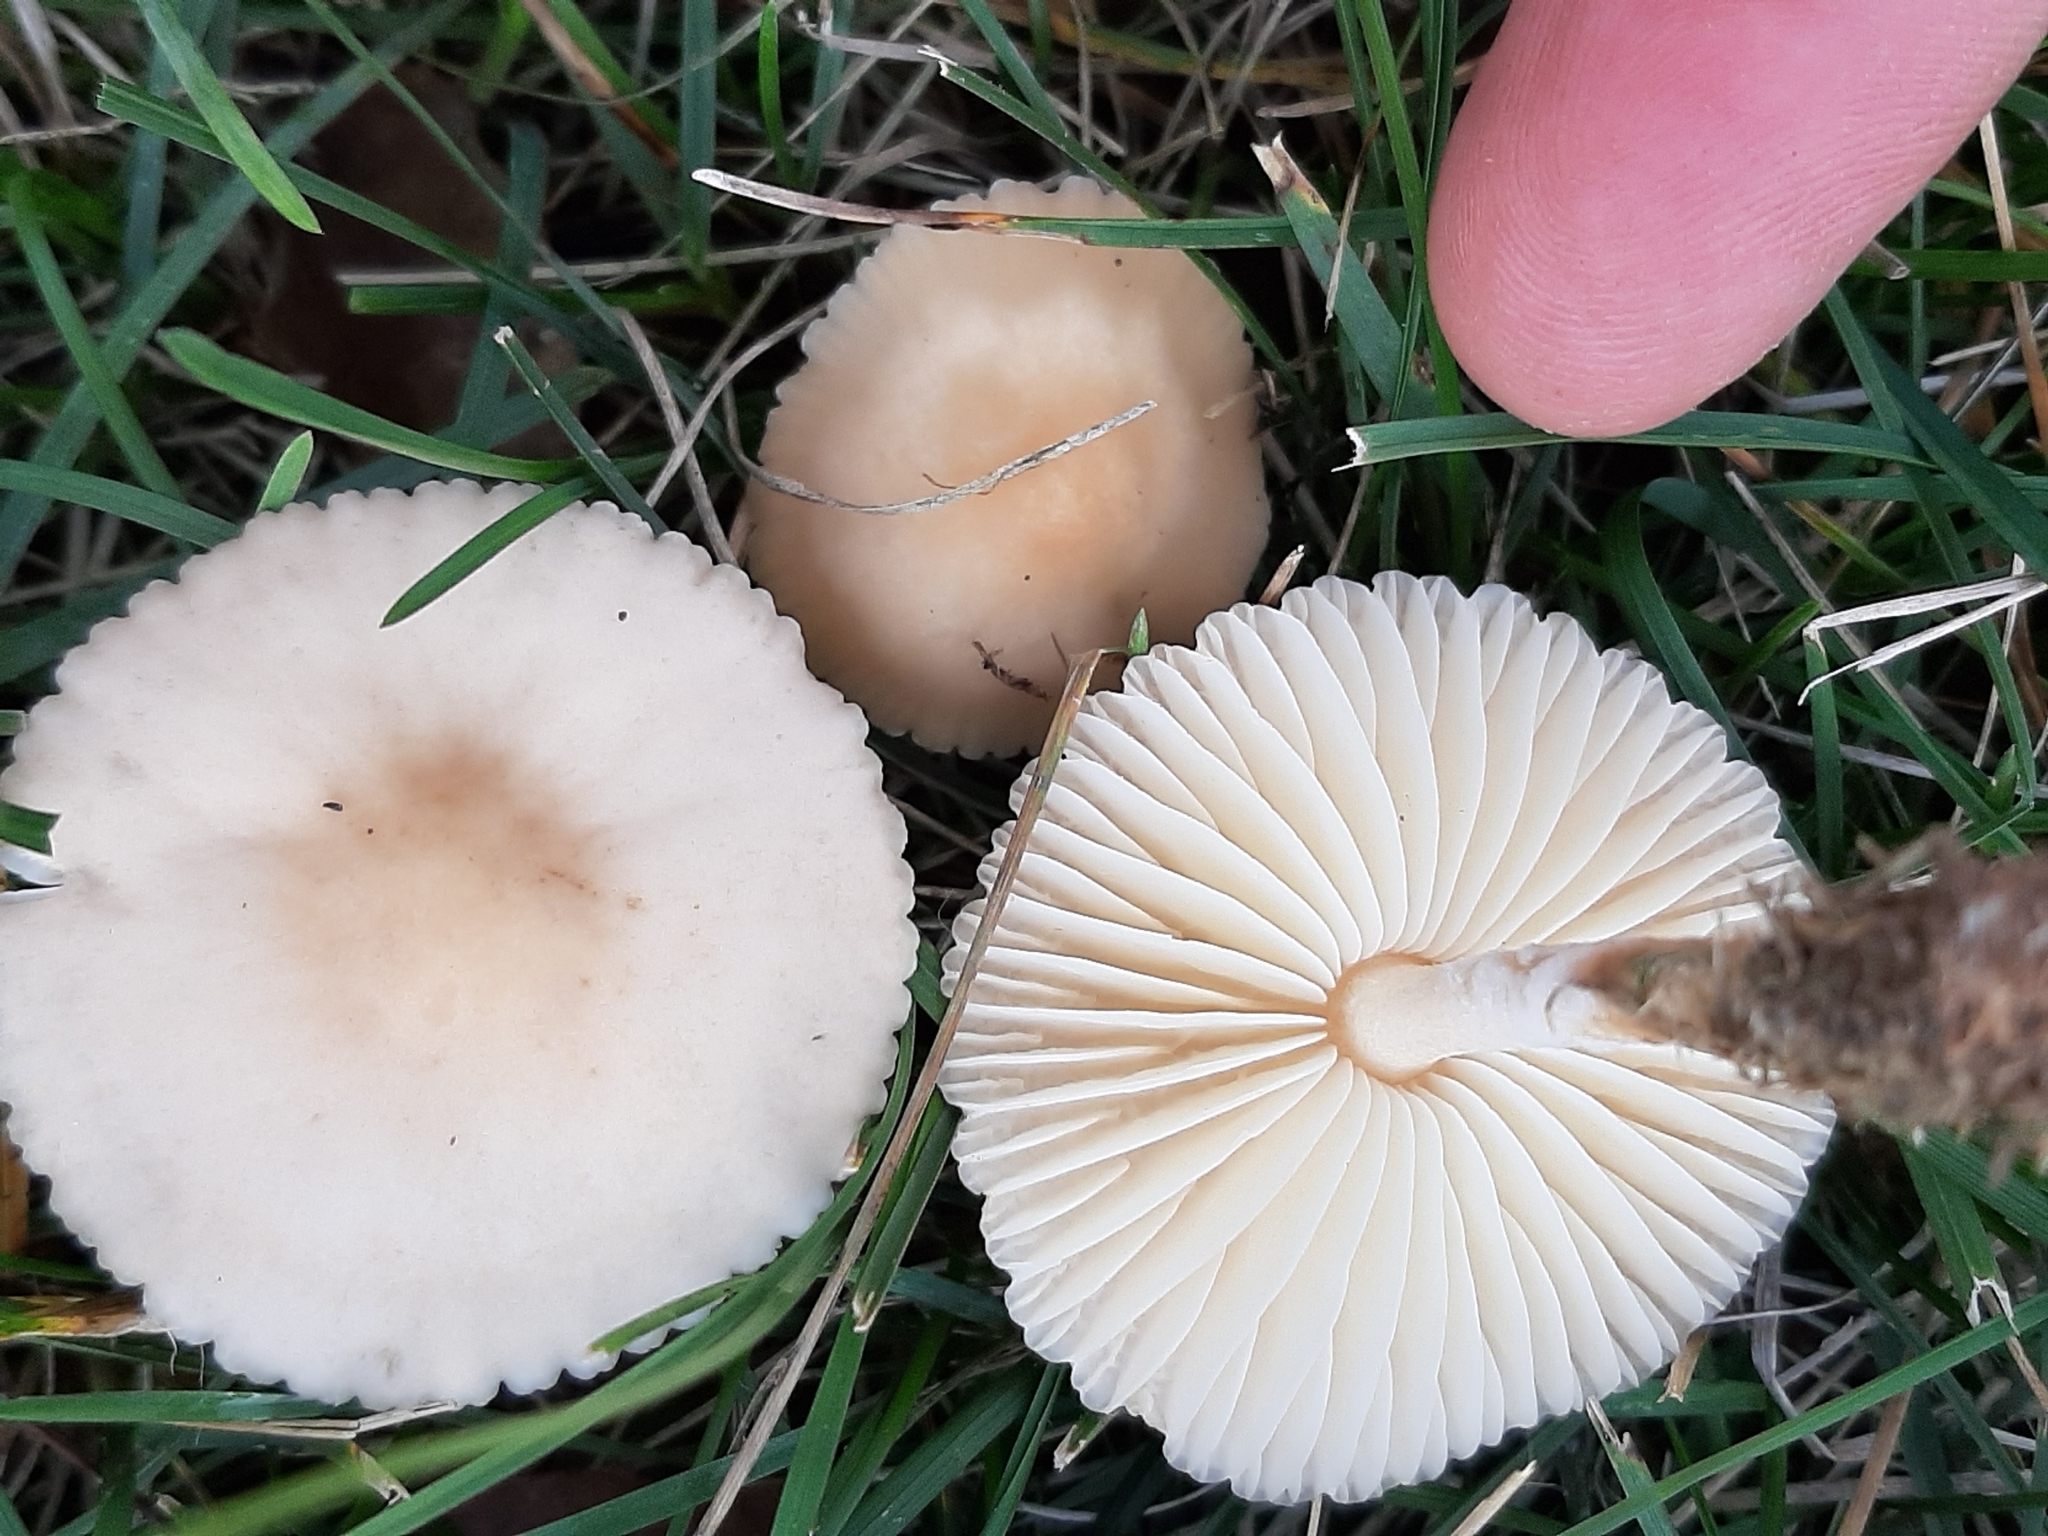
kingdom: Fungi
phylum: Basidiomycota
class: Agaricomycetes
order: Agaricales
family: Marasmiaceae
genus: Marasmius
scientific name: Marasmius oreades
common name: Fairy ring champignon
